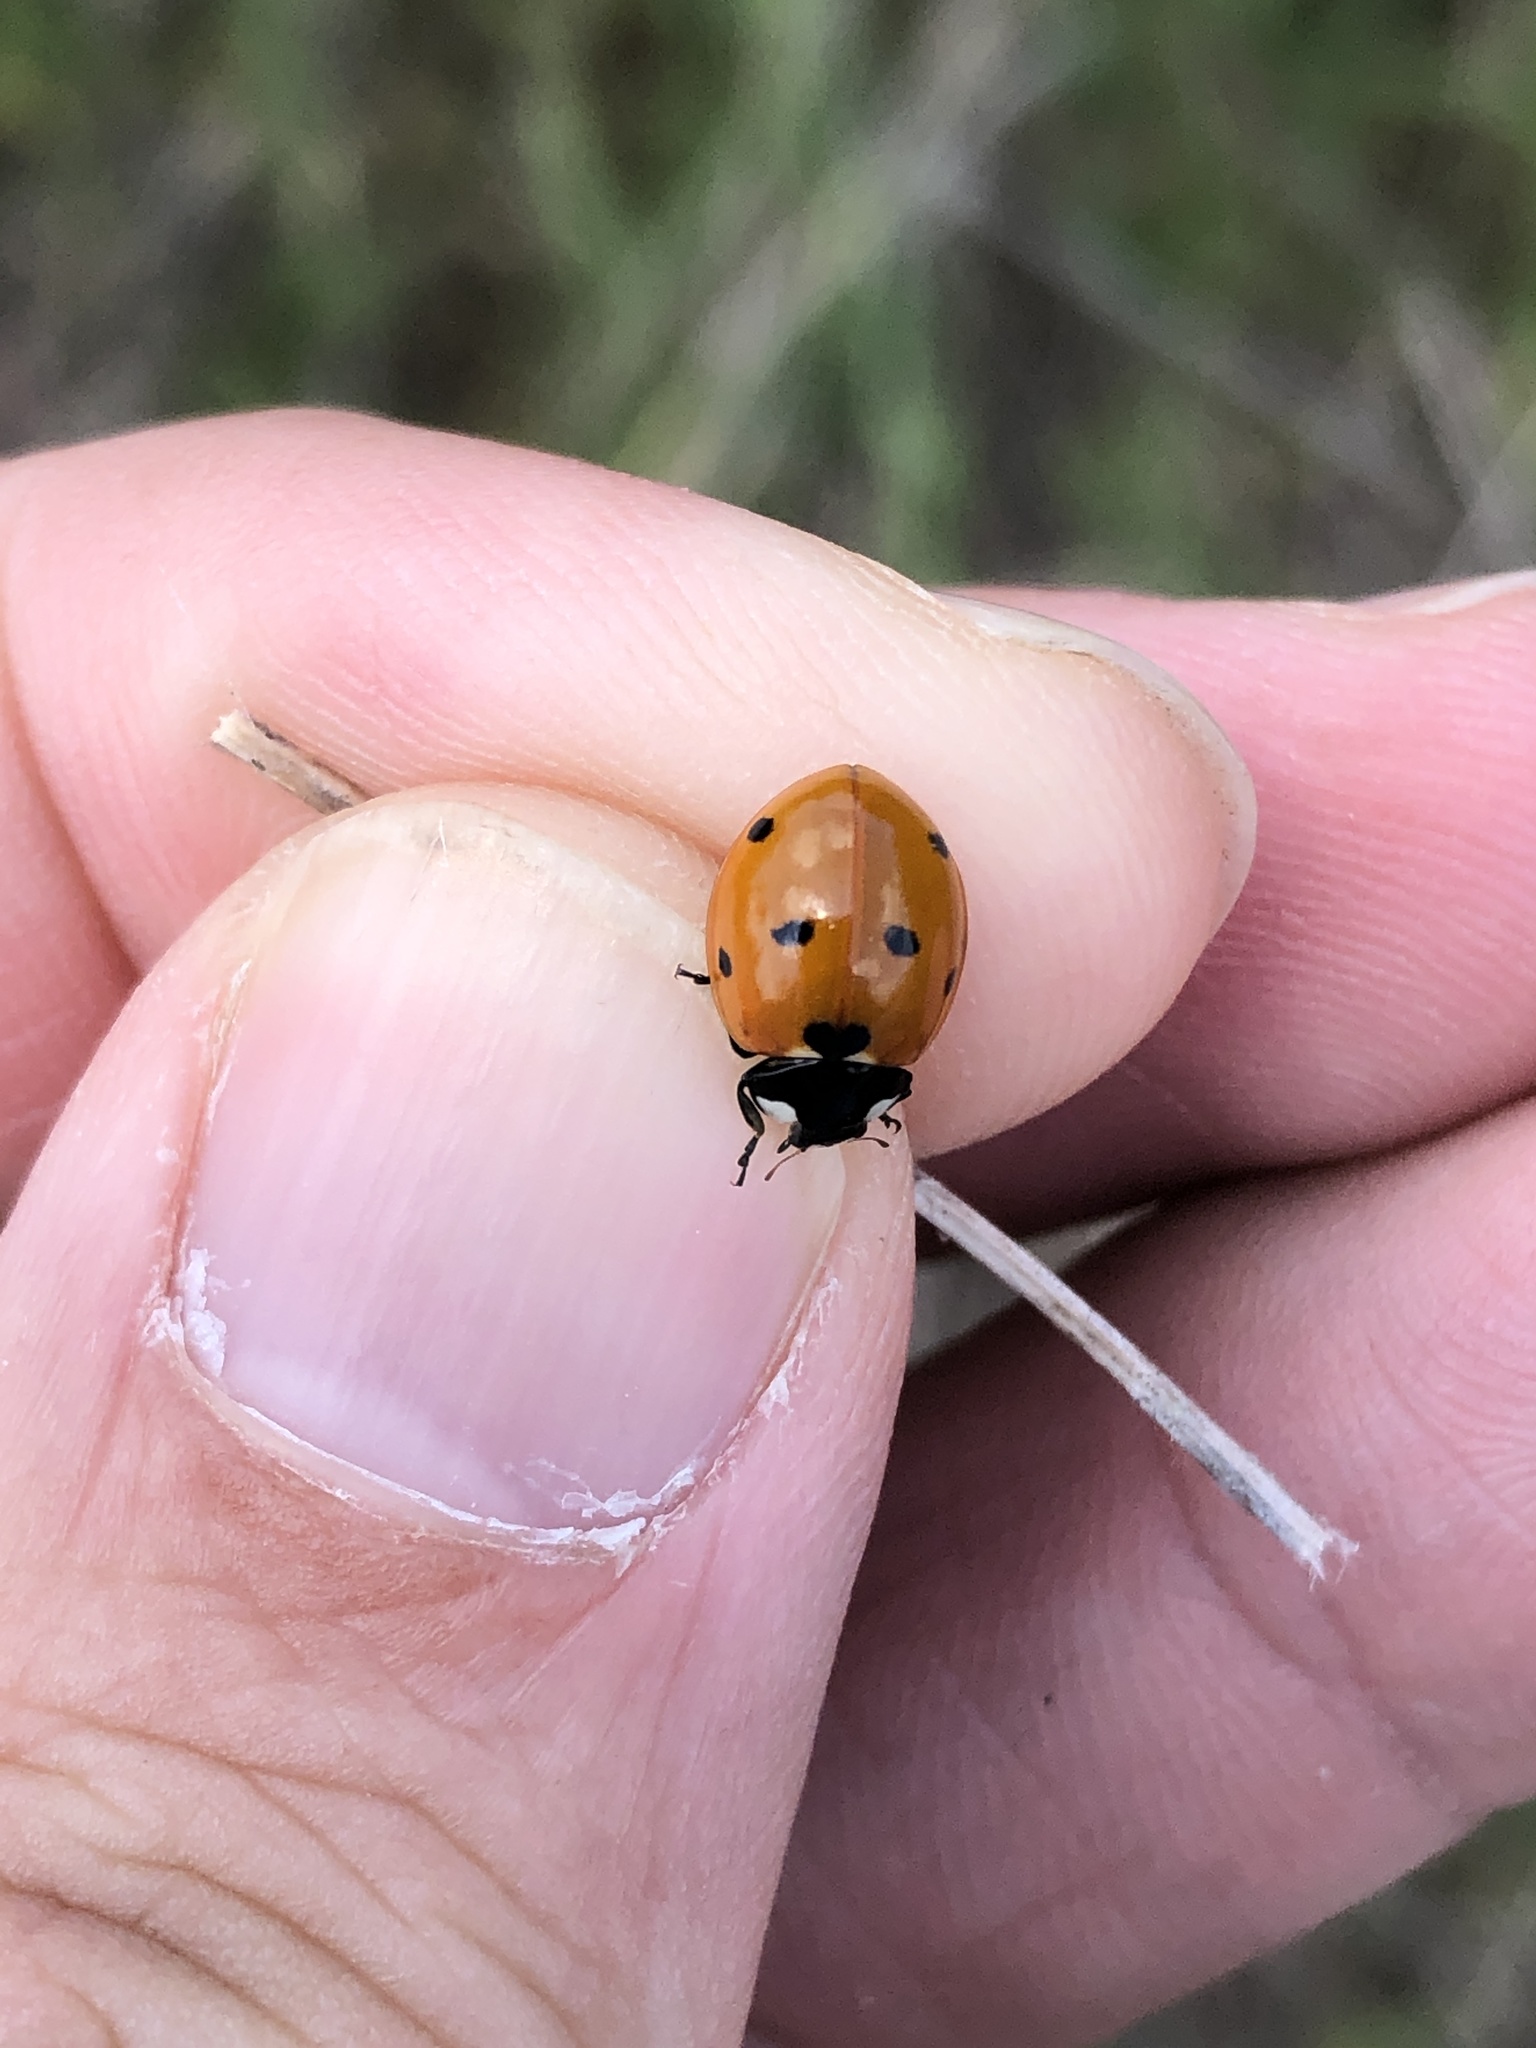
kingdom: Animalia
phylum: Arthropoda
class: Insecta
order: Coleoptera
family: Coccinellidae
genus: Coccinella
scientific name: Coccinella septempunctata
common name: Sevenspotted lady beetle
